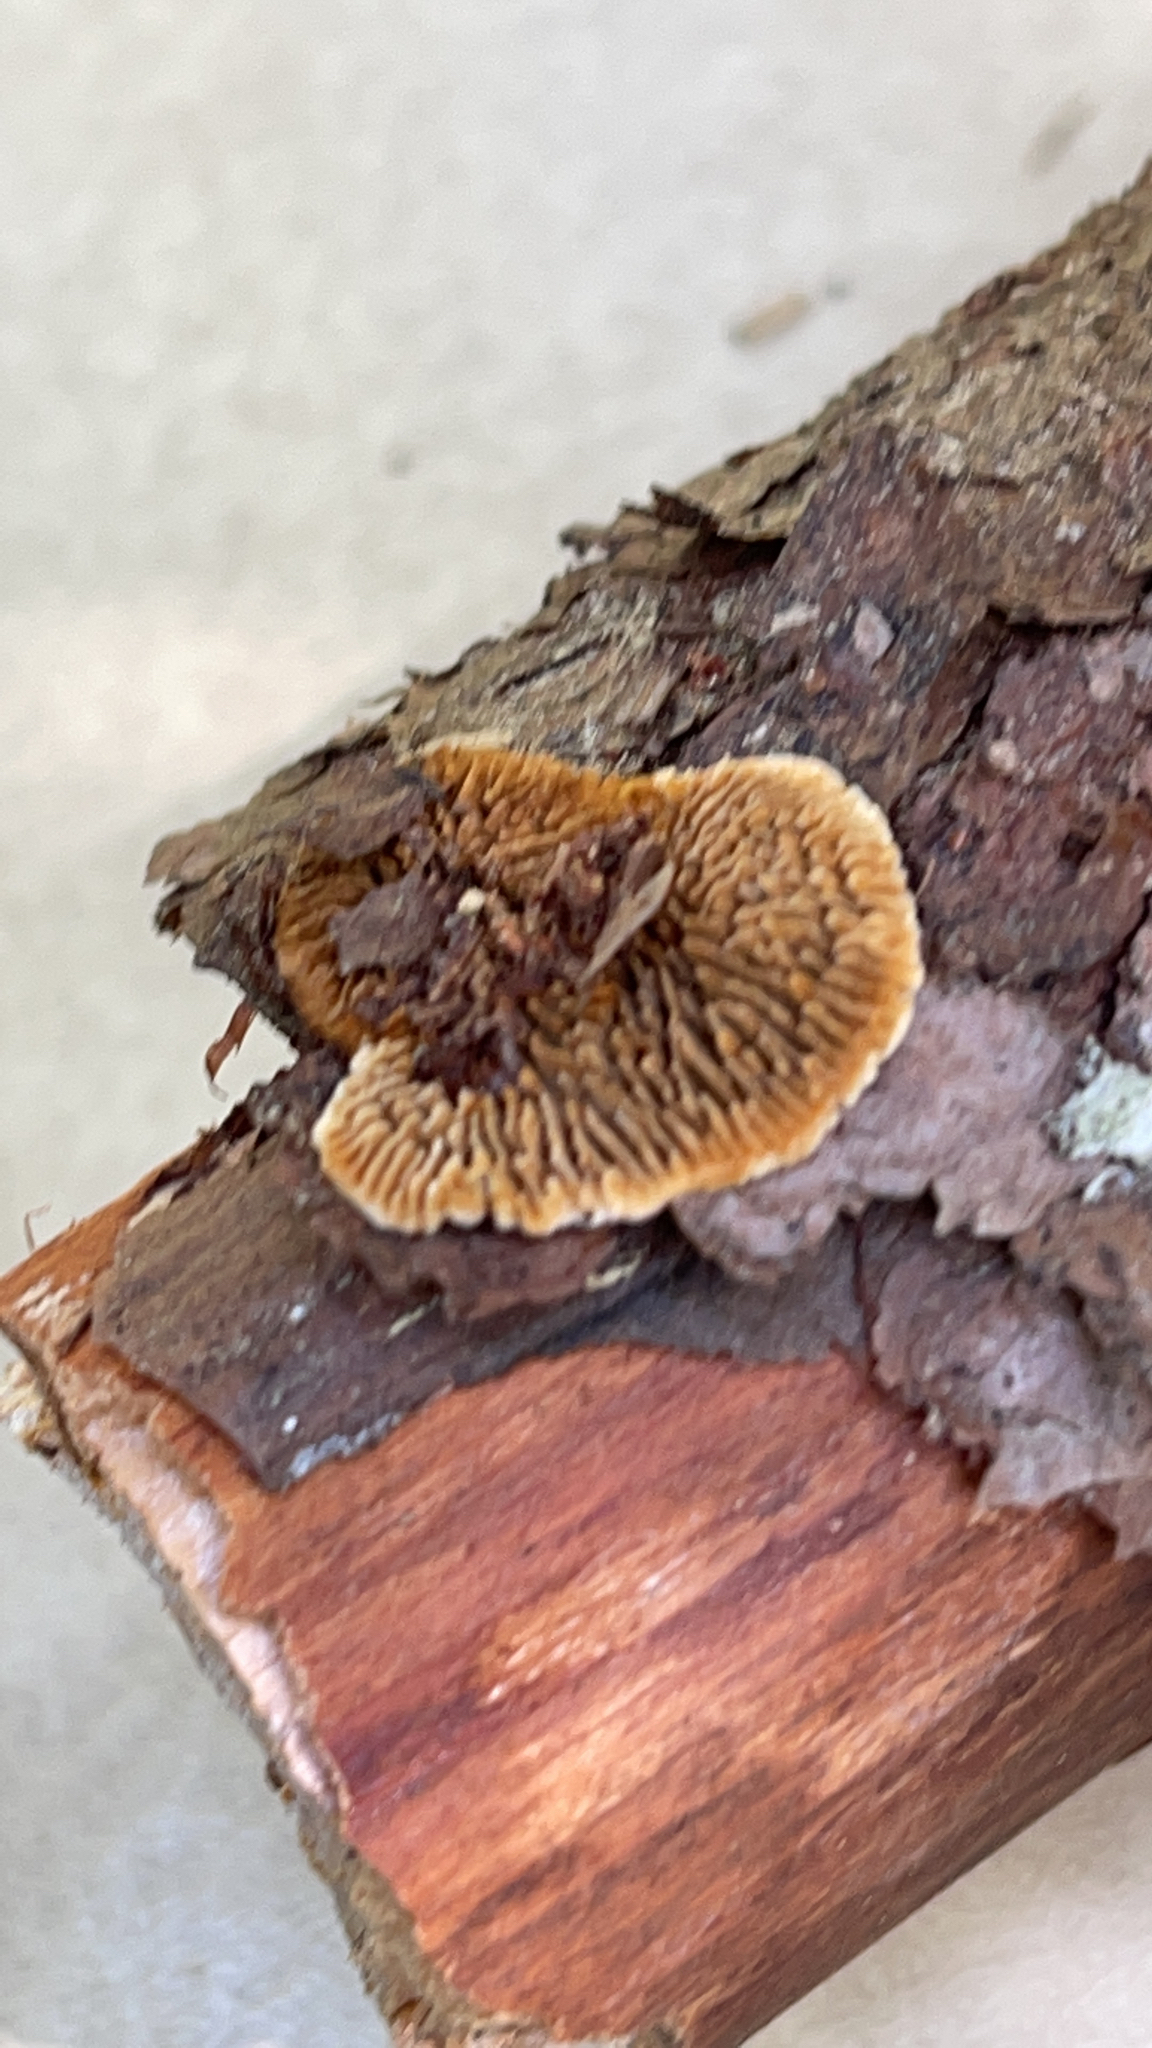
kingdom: Fungi
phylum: Basidiomycota
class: Agaricomycetes
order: Gloeophyllales
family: Gloeophyllaceae
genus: Gloeophyllum
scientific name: Gloeophyllum sepiarium
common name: Conifer mazegill
